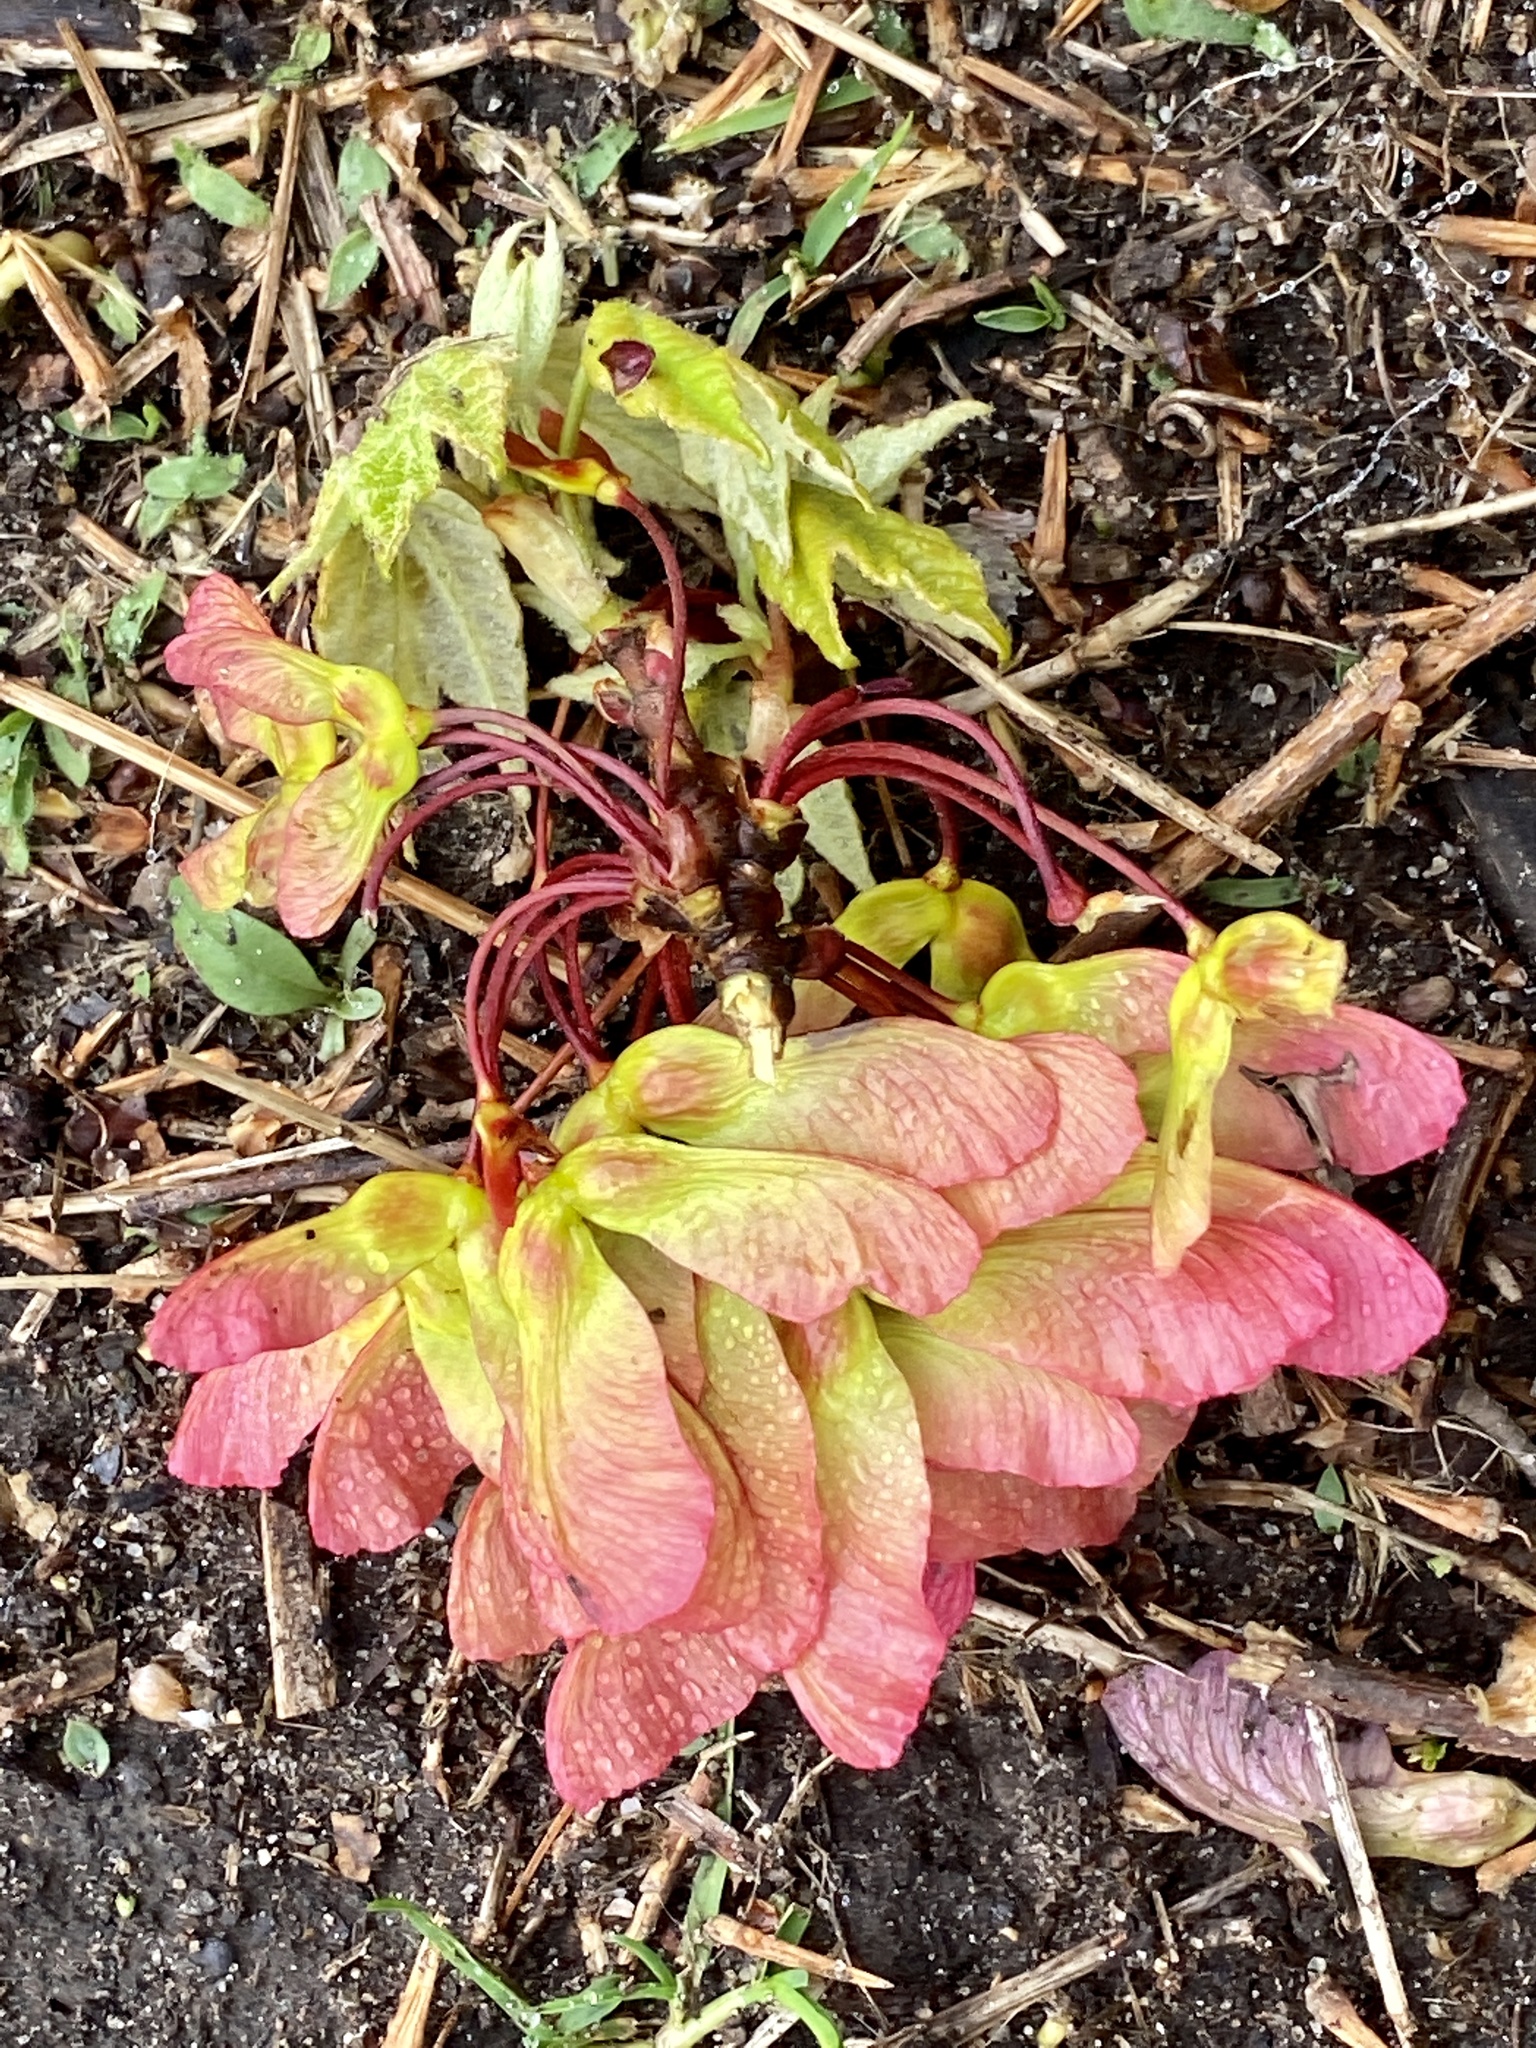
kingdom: Plantae
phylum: Tracheophyta
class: Magnoliopsida
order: Sapindales
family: Sapindaceae
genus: Acer
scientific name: Acer rubrum
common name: Red maple
